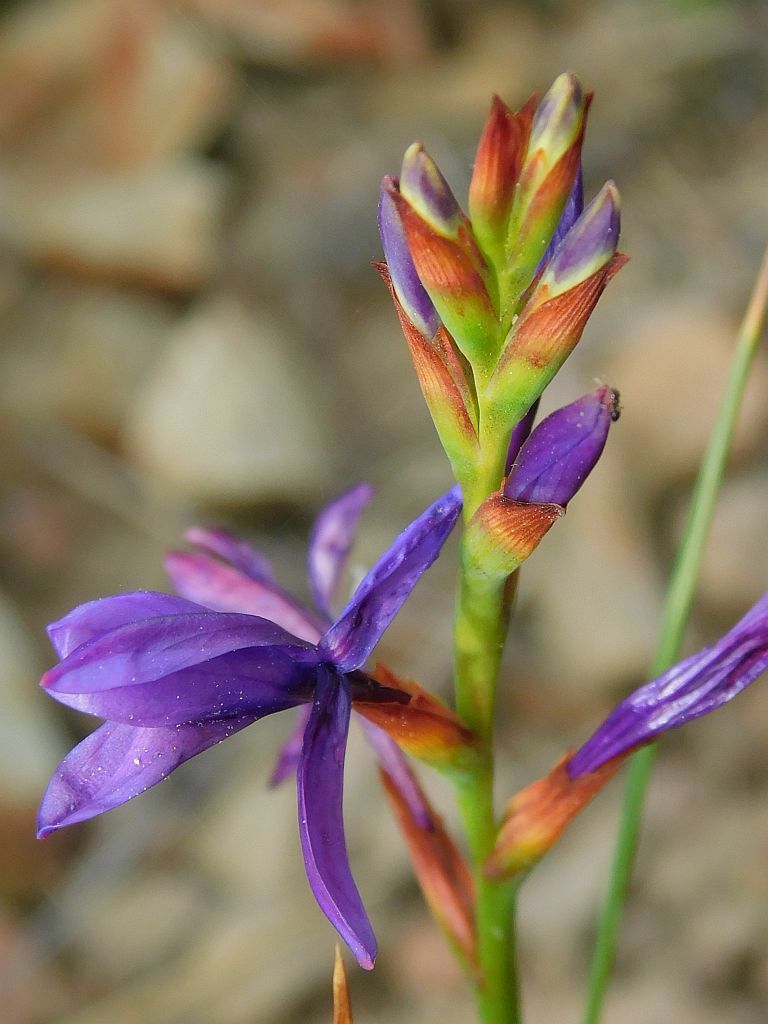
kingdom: Plantae
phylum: Tracheophyta
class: Liliopsida
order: Asparagales
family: Iridaceae
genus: Thereianthus
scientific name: Thereianthus bracteolatus
